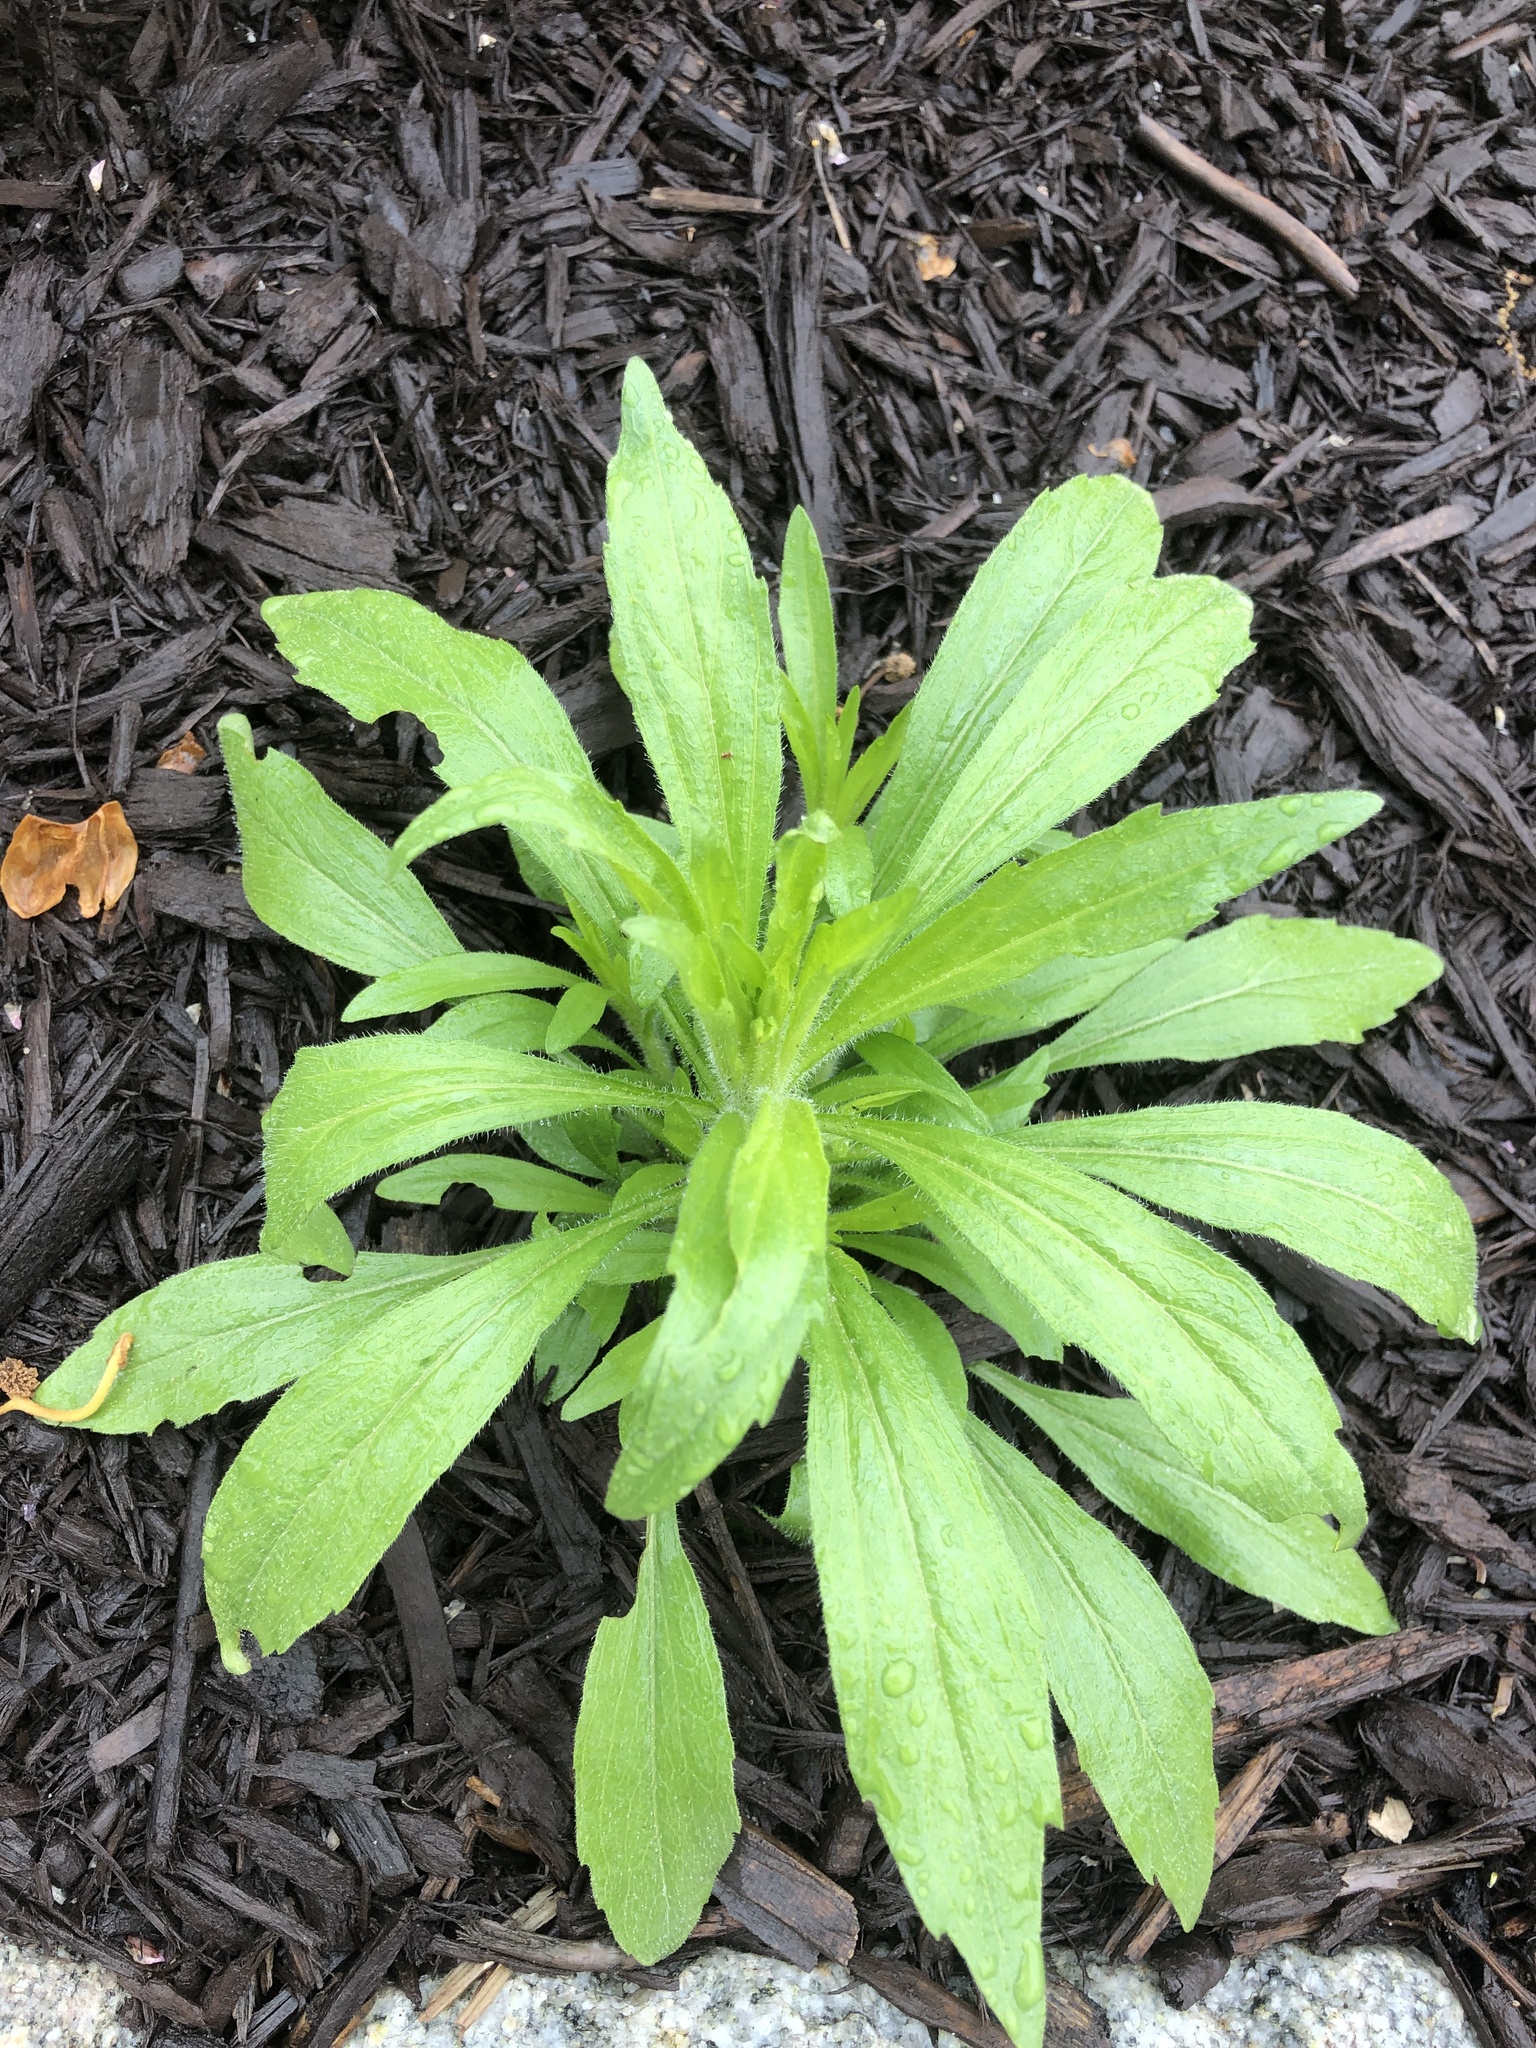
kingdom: Plantae
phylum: Tracheophyta
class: Magnoliopsida
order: Asterales
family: Asteraceae
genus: Erigeron
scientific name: Erigeron canadensis
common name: Canadian fleabane
